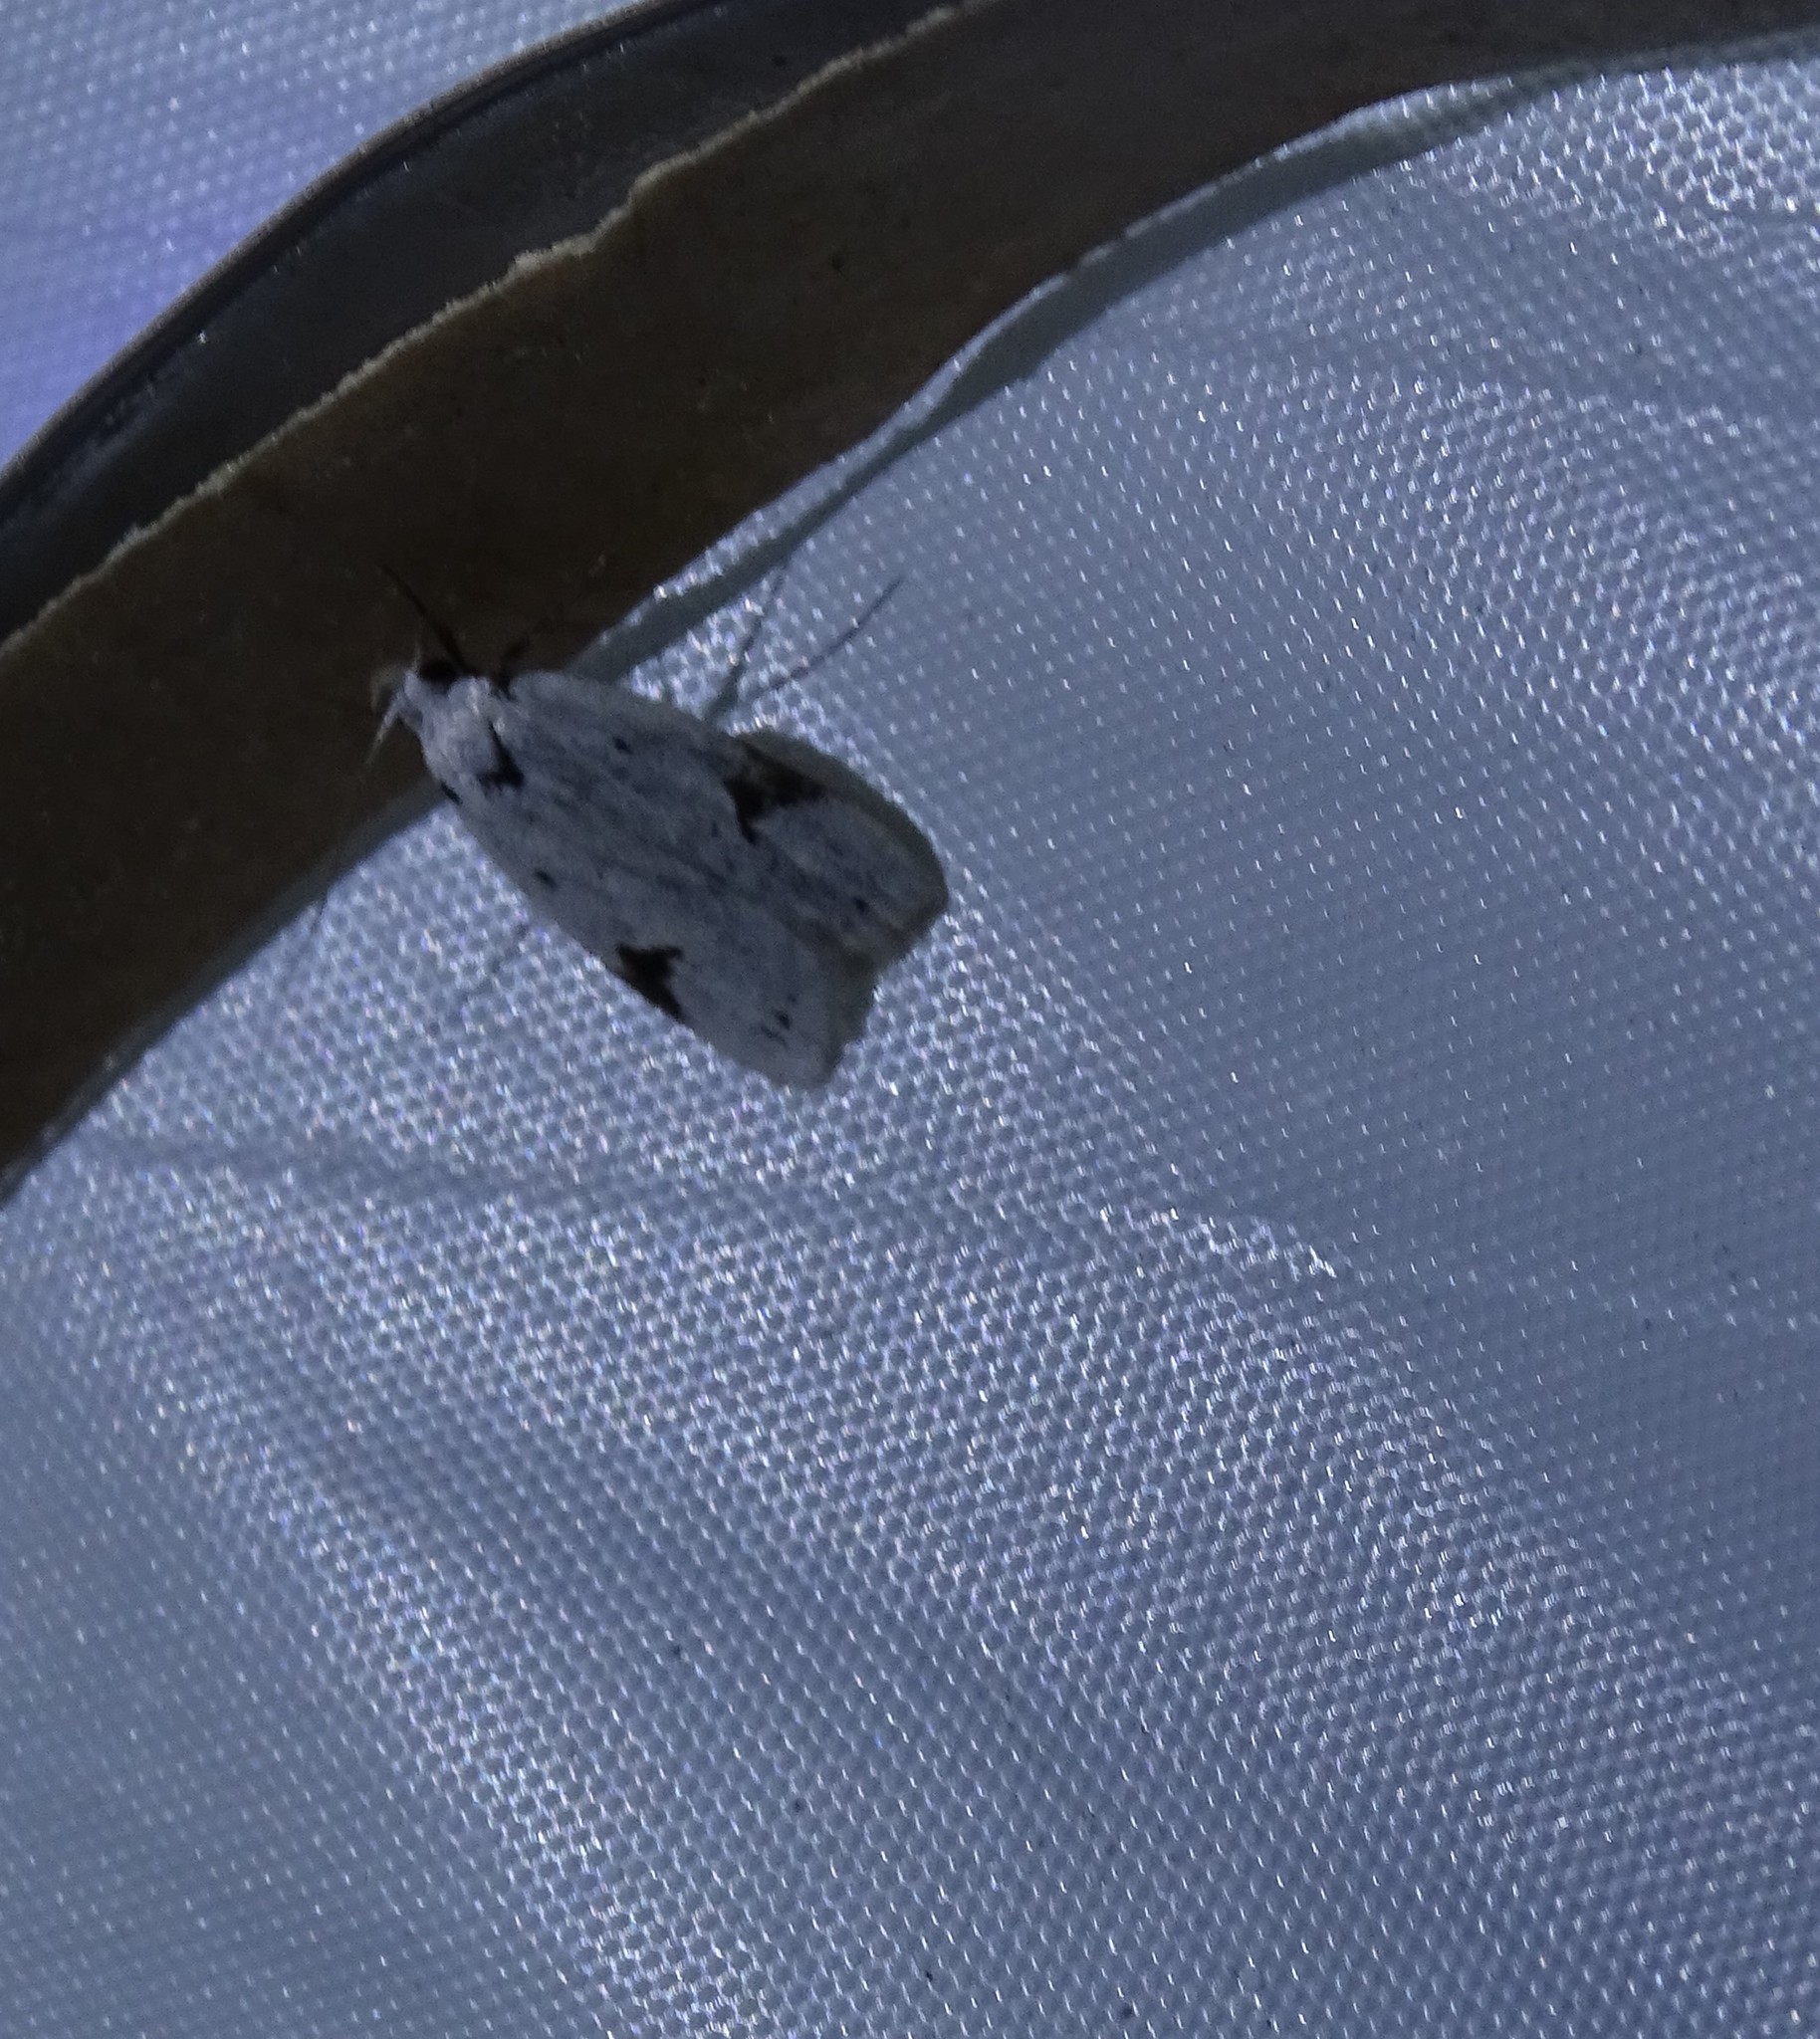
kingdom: Animalia
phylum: Arthropoda
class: Insecta
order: Lepidoptera
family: Oecophoridae
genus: Inga
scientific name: Inga sparsiciliella
